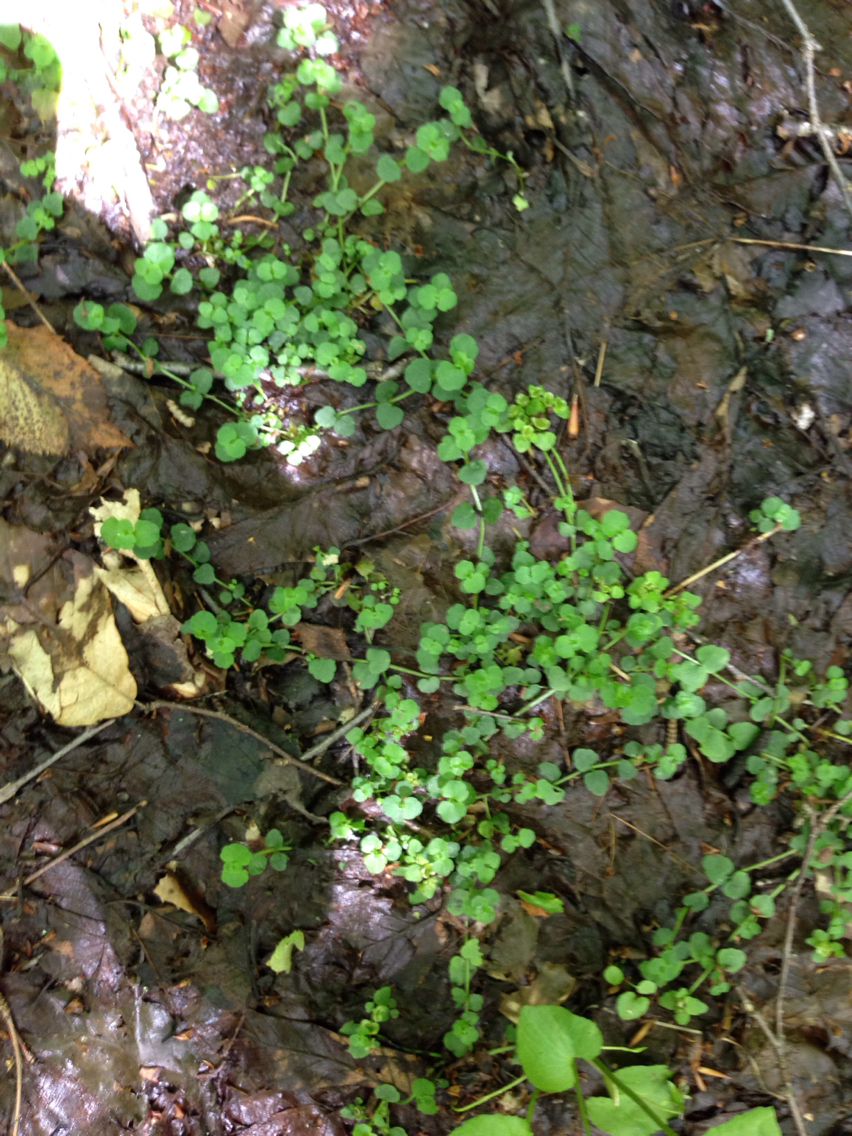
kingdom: Plantae
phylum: Tracheophyta
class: Magnoliopsida
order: Saxifragales
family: Saxifragaceae
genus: Chrysosplenium
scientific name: Chrysosplenium americanum
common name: American golden-saxifrage
